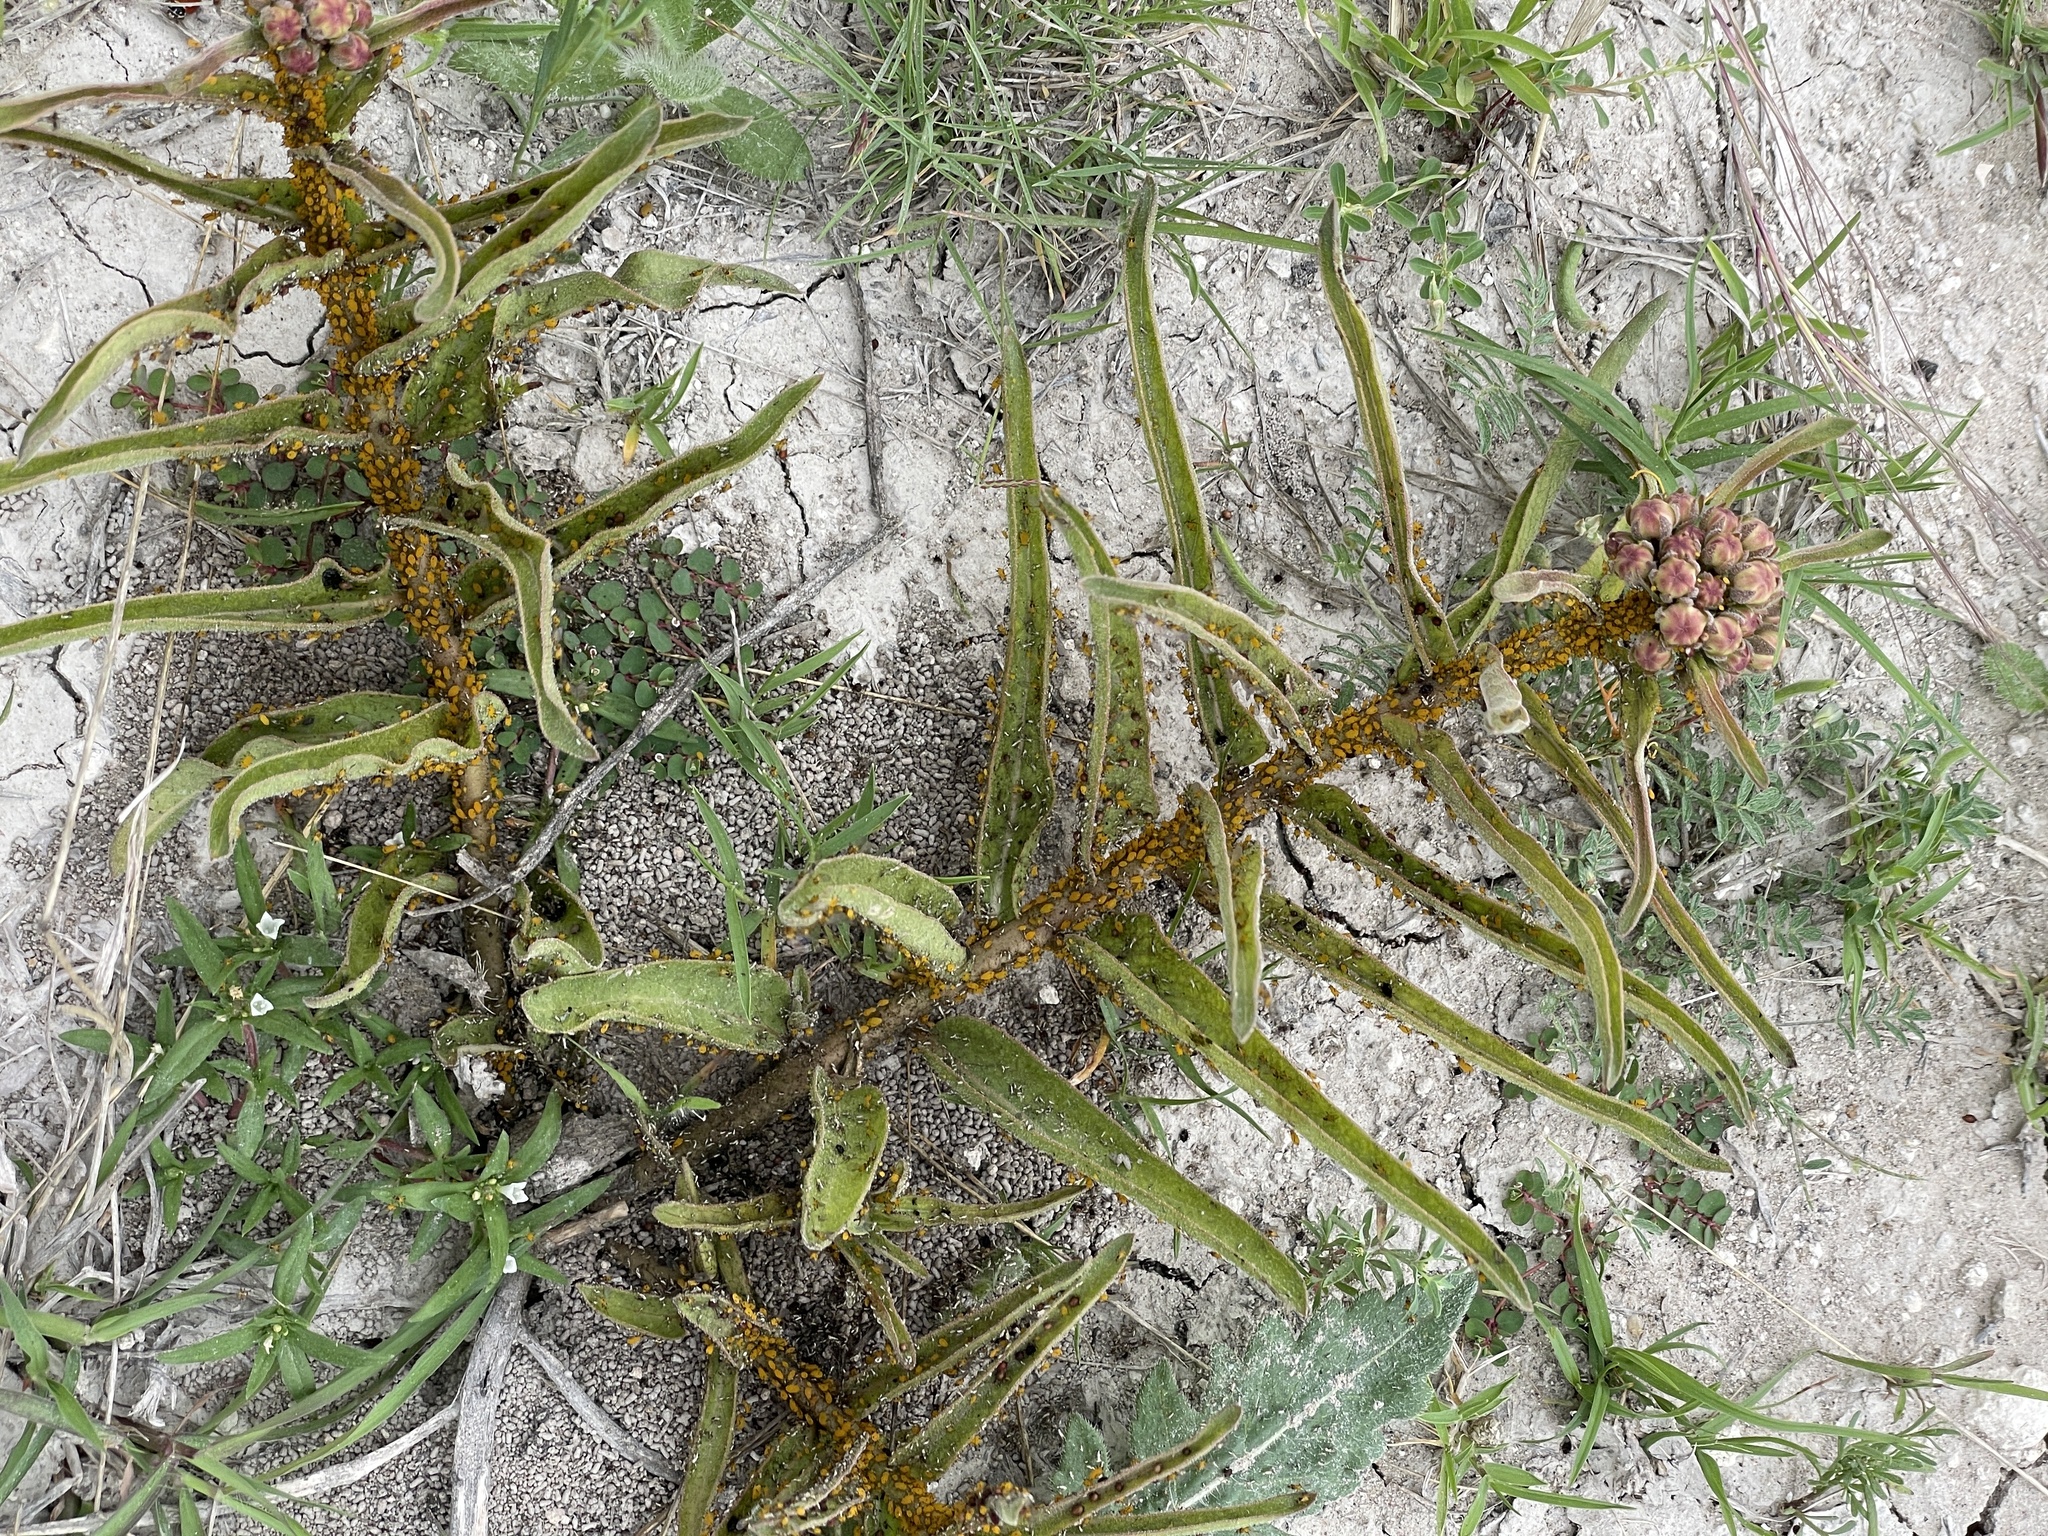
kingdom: Plantae
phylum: Tracheophyta
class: Magnoliopsida
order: Gentianales
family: Apocynaceae
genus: Asclepias
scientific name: Asclepias asperula
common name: Antelope horns
